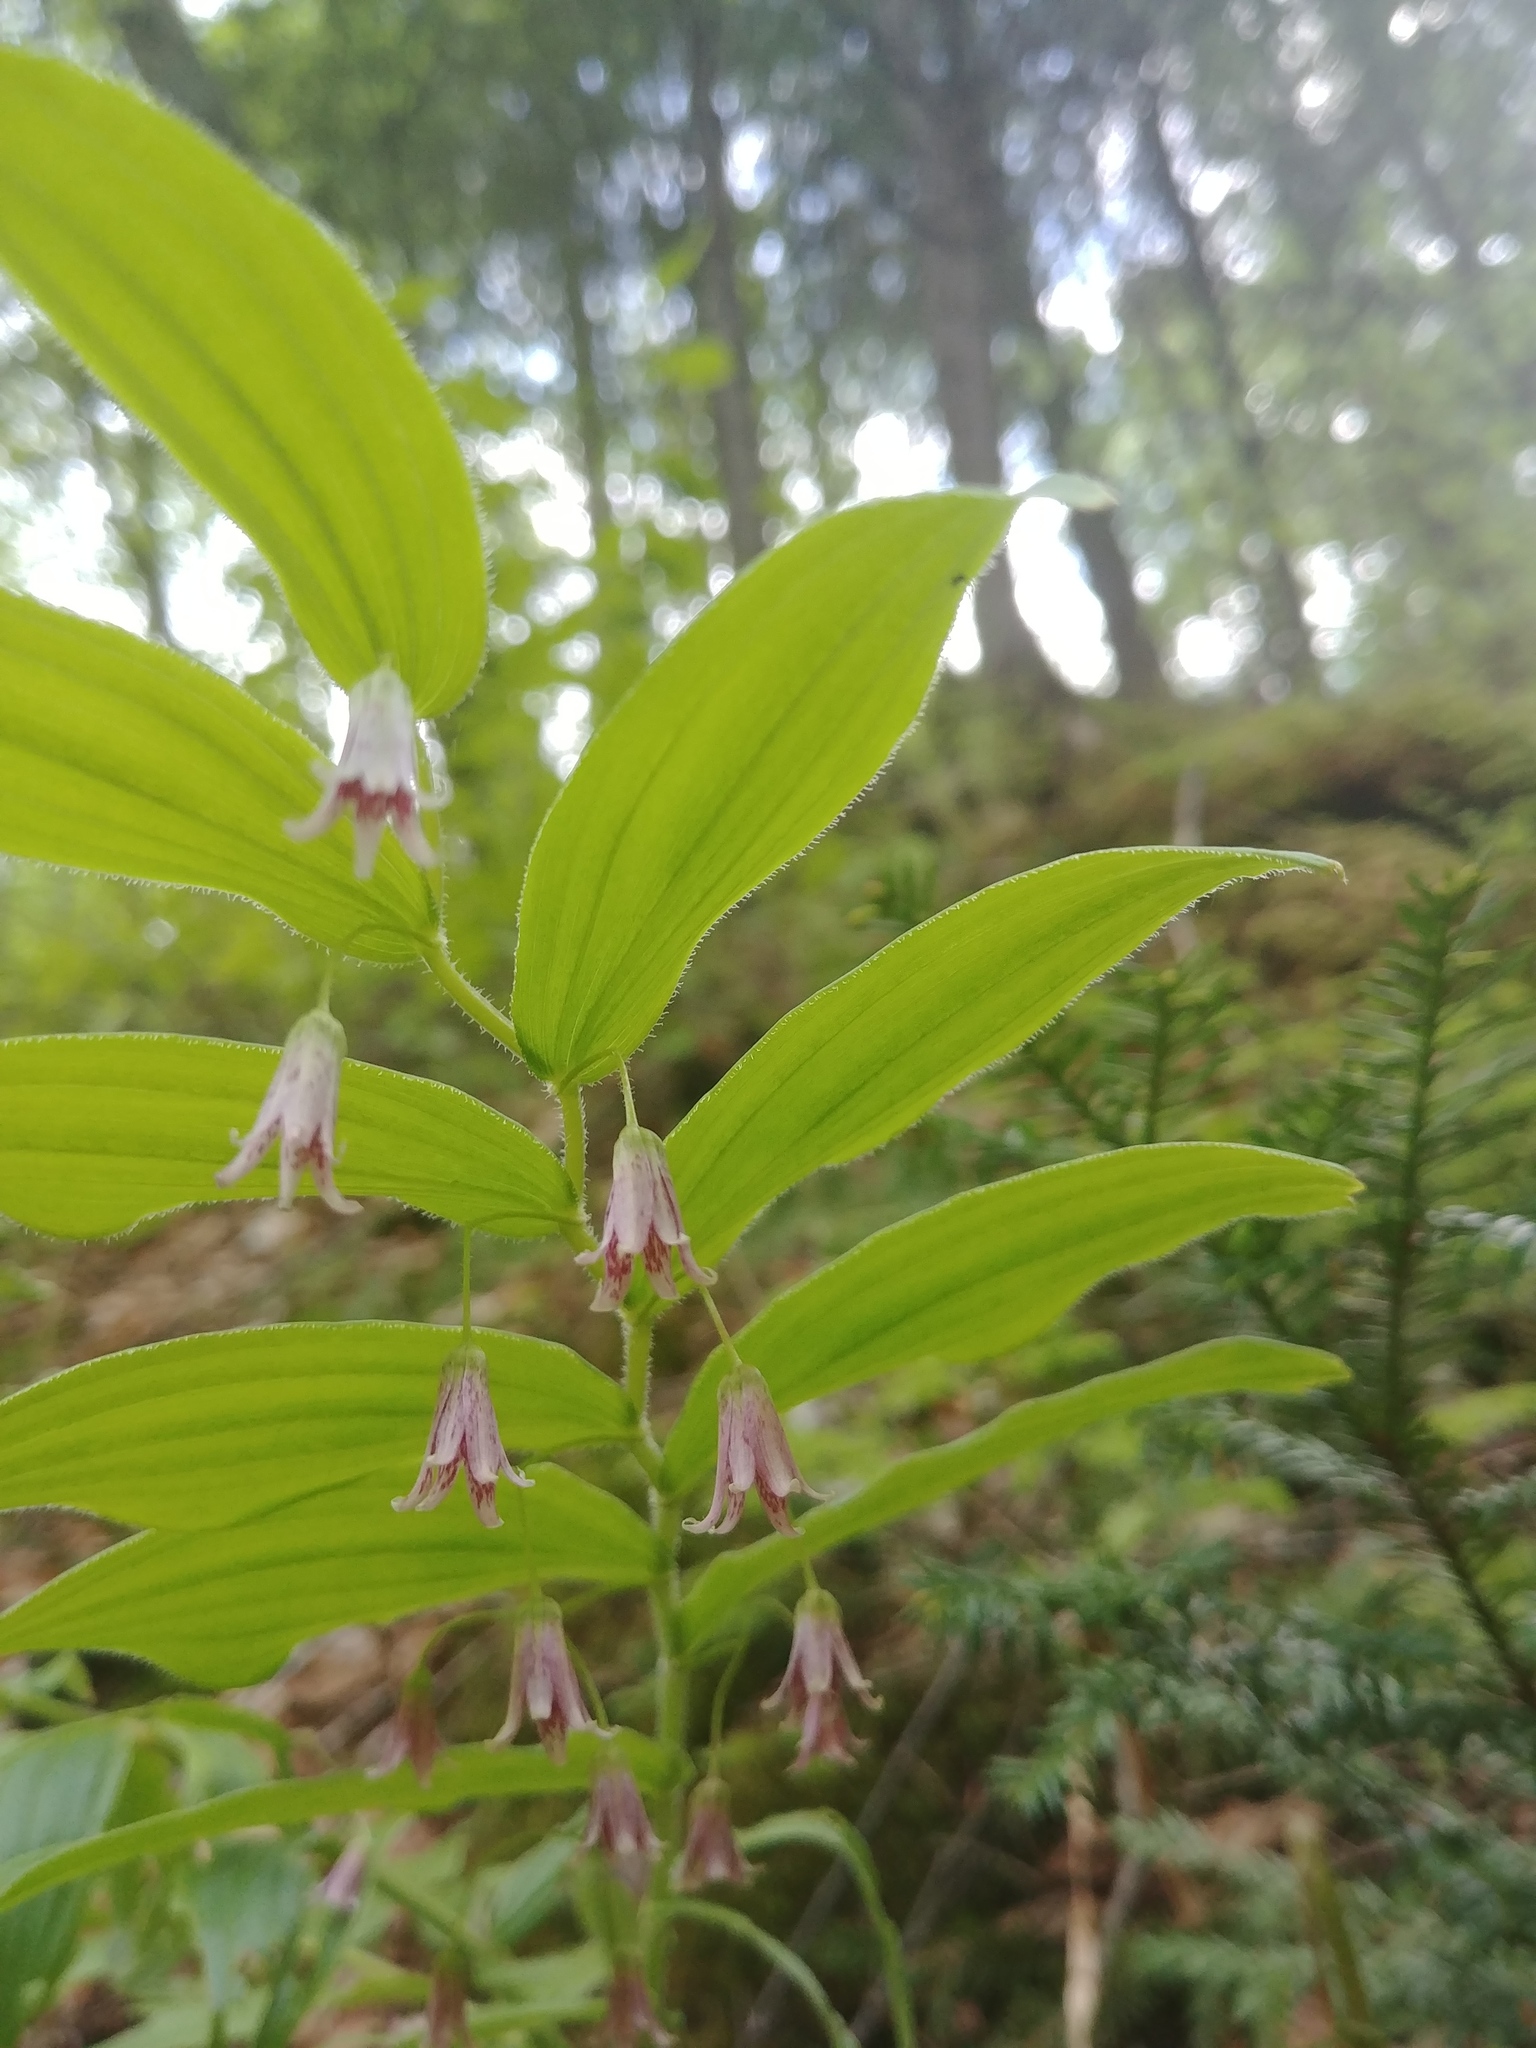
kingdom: Plantae
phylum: Tracheophyta
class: Liliopsida
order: Liliales
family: Liliaceae
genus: Streptopus
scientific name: Streptopus lanceolatus
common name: Rose mandarin
